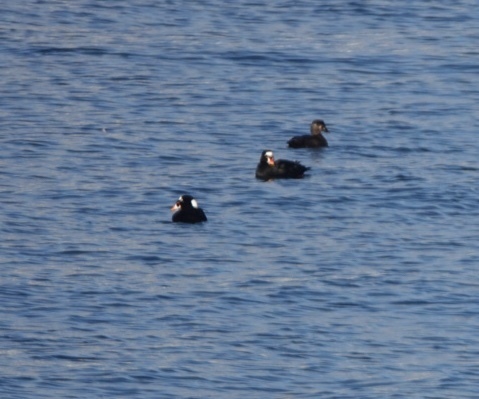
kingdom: Animalia
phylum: Chordata
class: Aves
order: Anseriformes
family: Anatidae
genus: Melanitta
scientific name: Melanitta perspicillata
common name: Surf scoter
